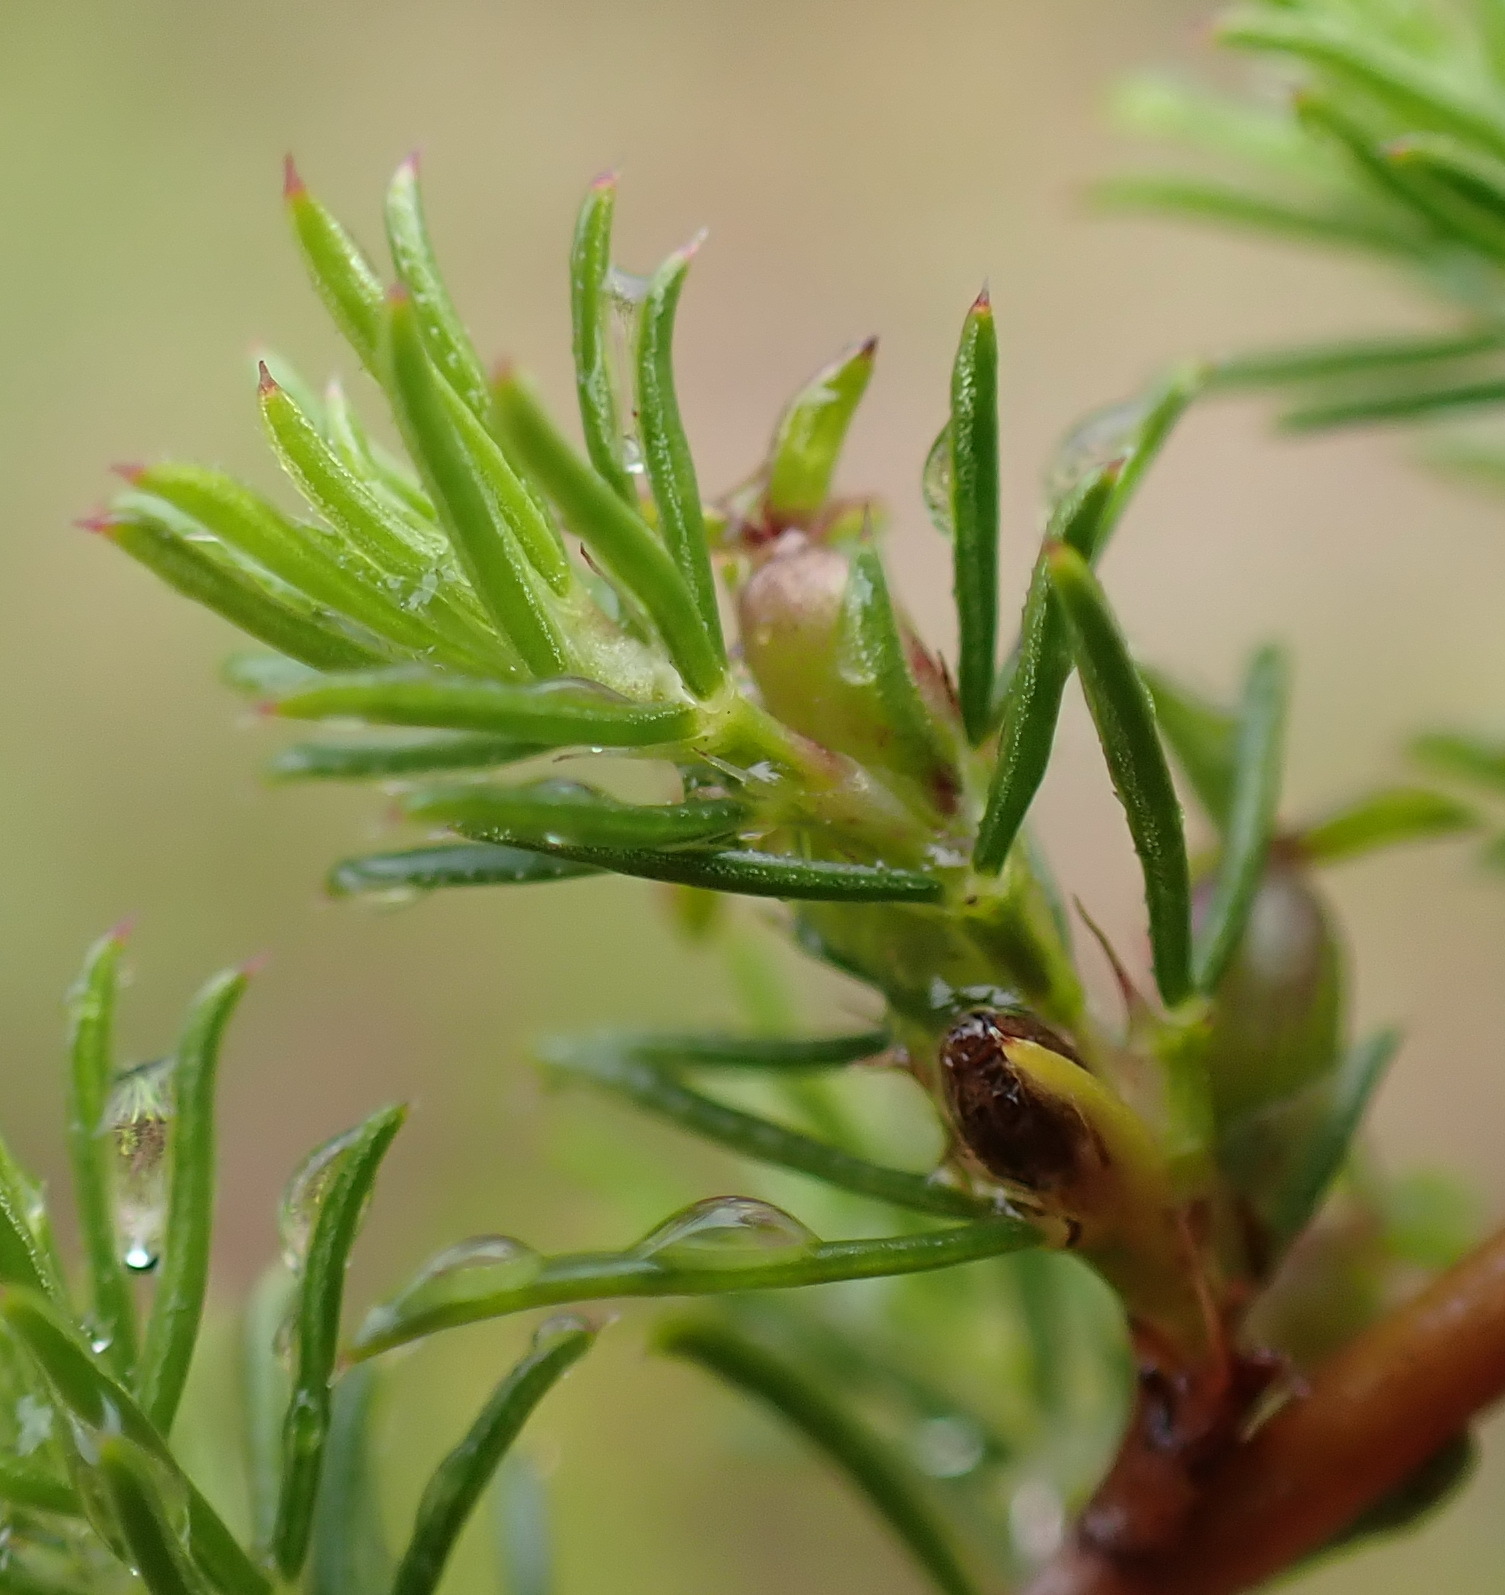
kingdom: Plantae
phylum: Tracheophyta
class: Magnoliopsida
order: Rosales
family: Rosaceae
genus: Cliffortia
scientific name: Cliffortia filifolia
